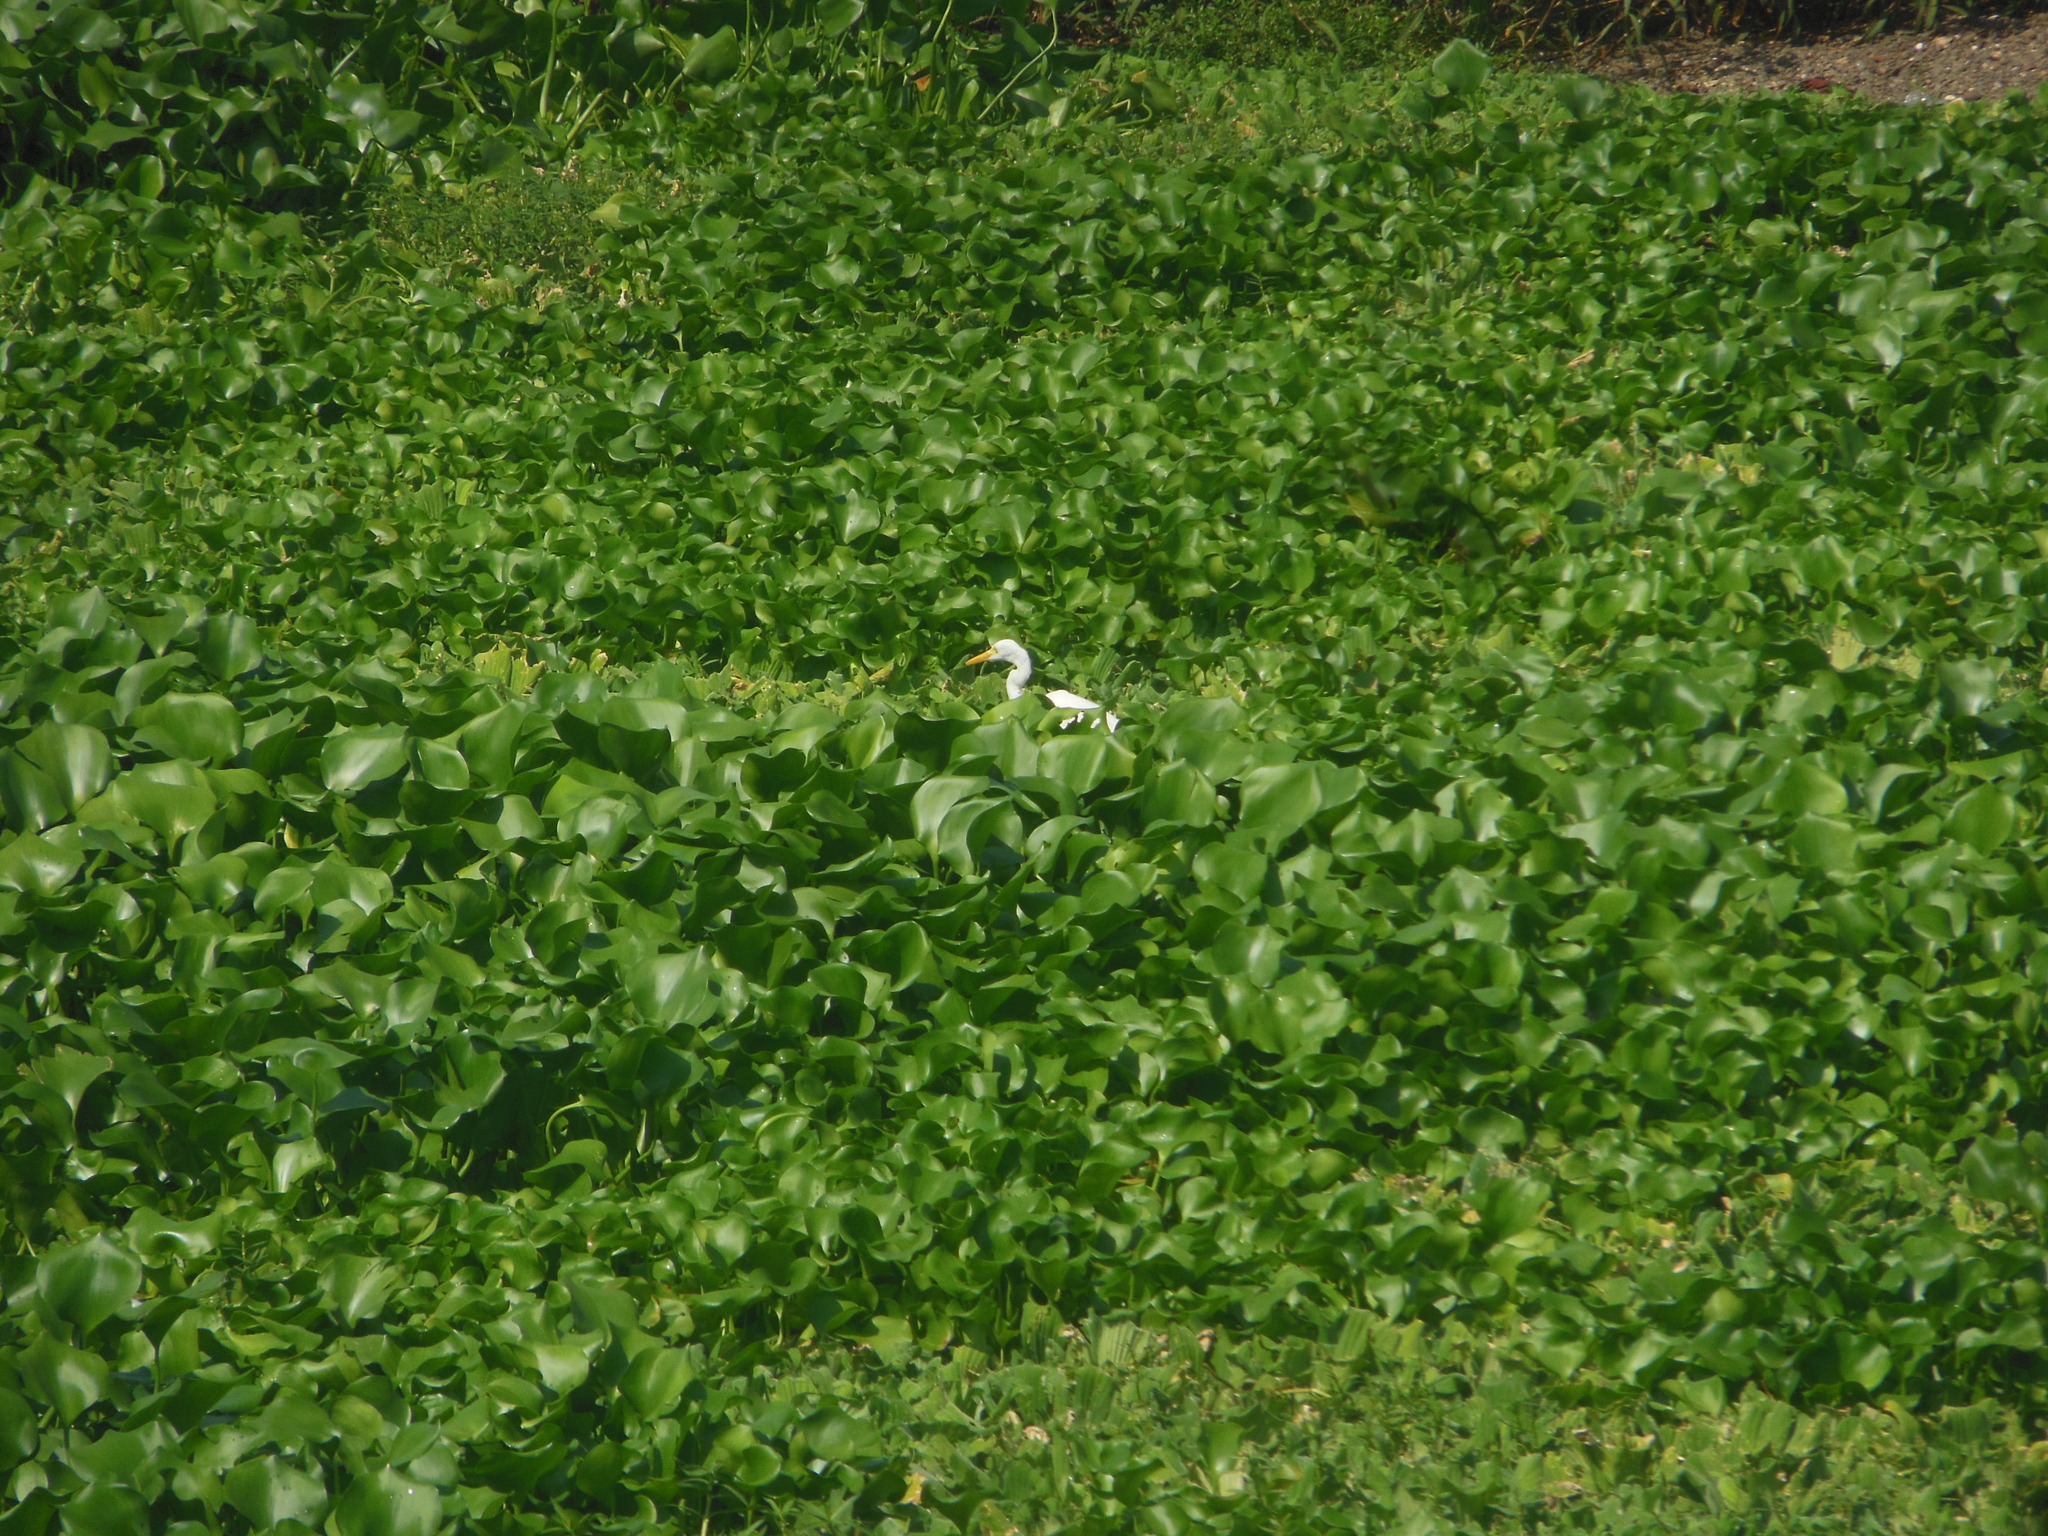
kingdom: Animalia
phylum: Chordata
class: Aves
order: Pelecaniformes
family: Ardeidae
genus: Egretta
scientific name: Egretta intermedia
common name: Intermediate egret
